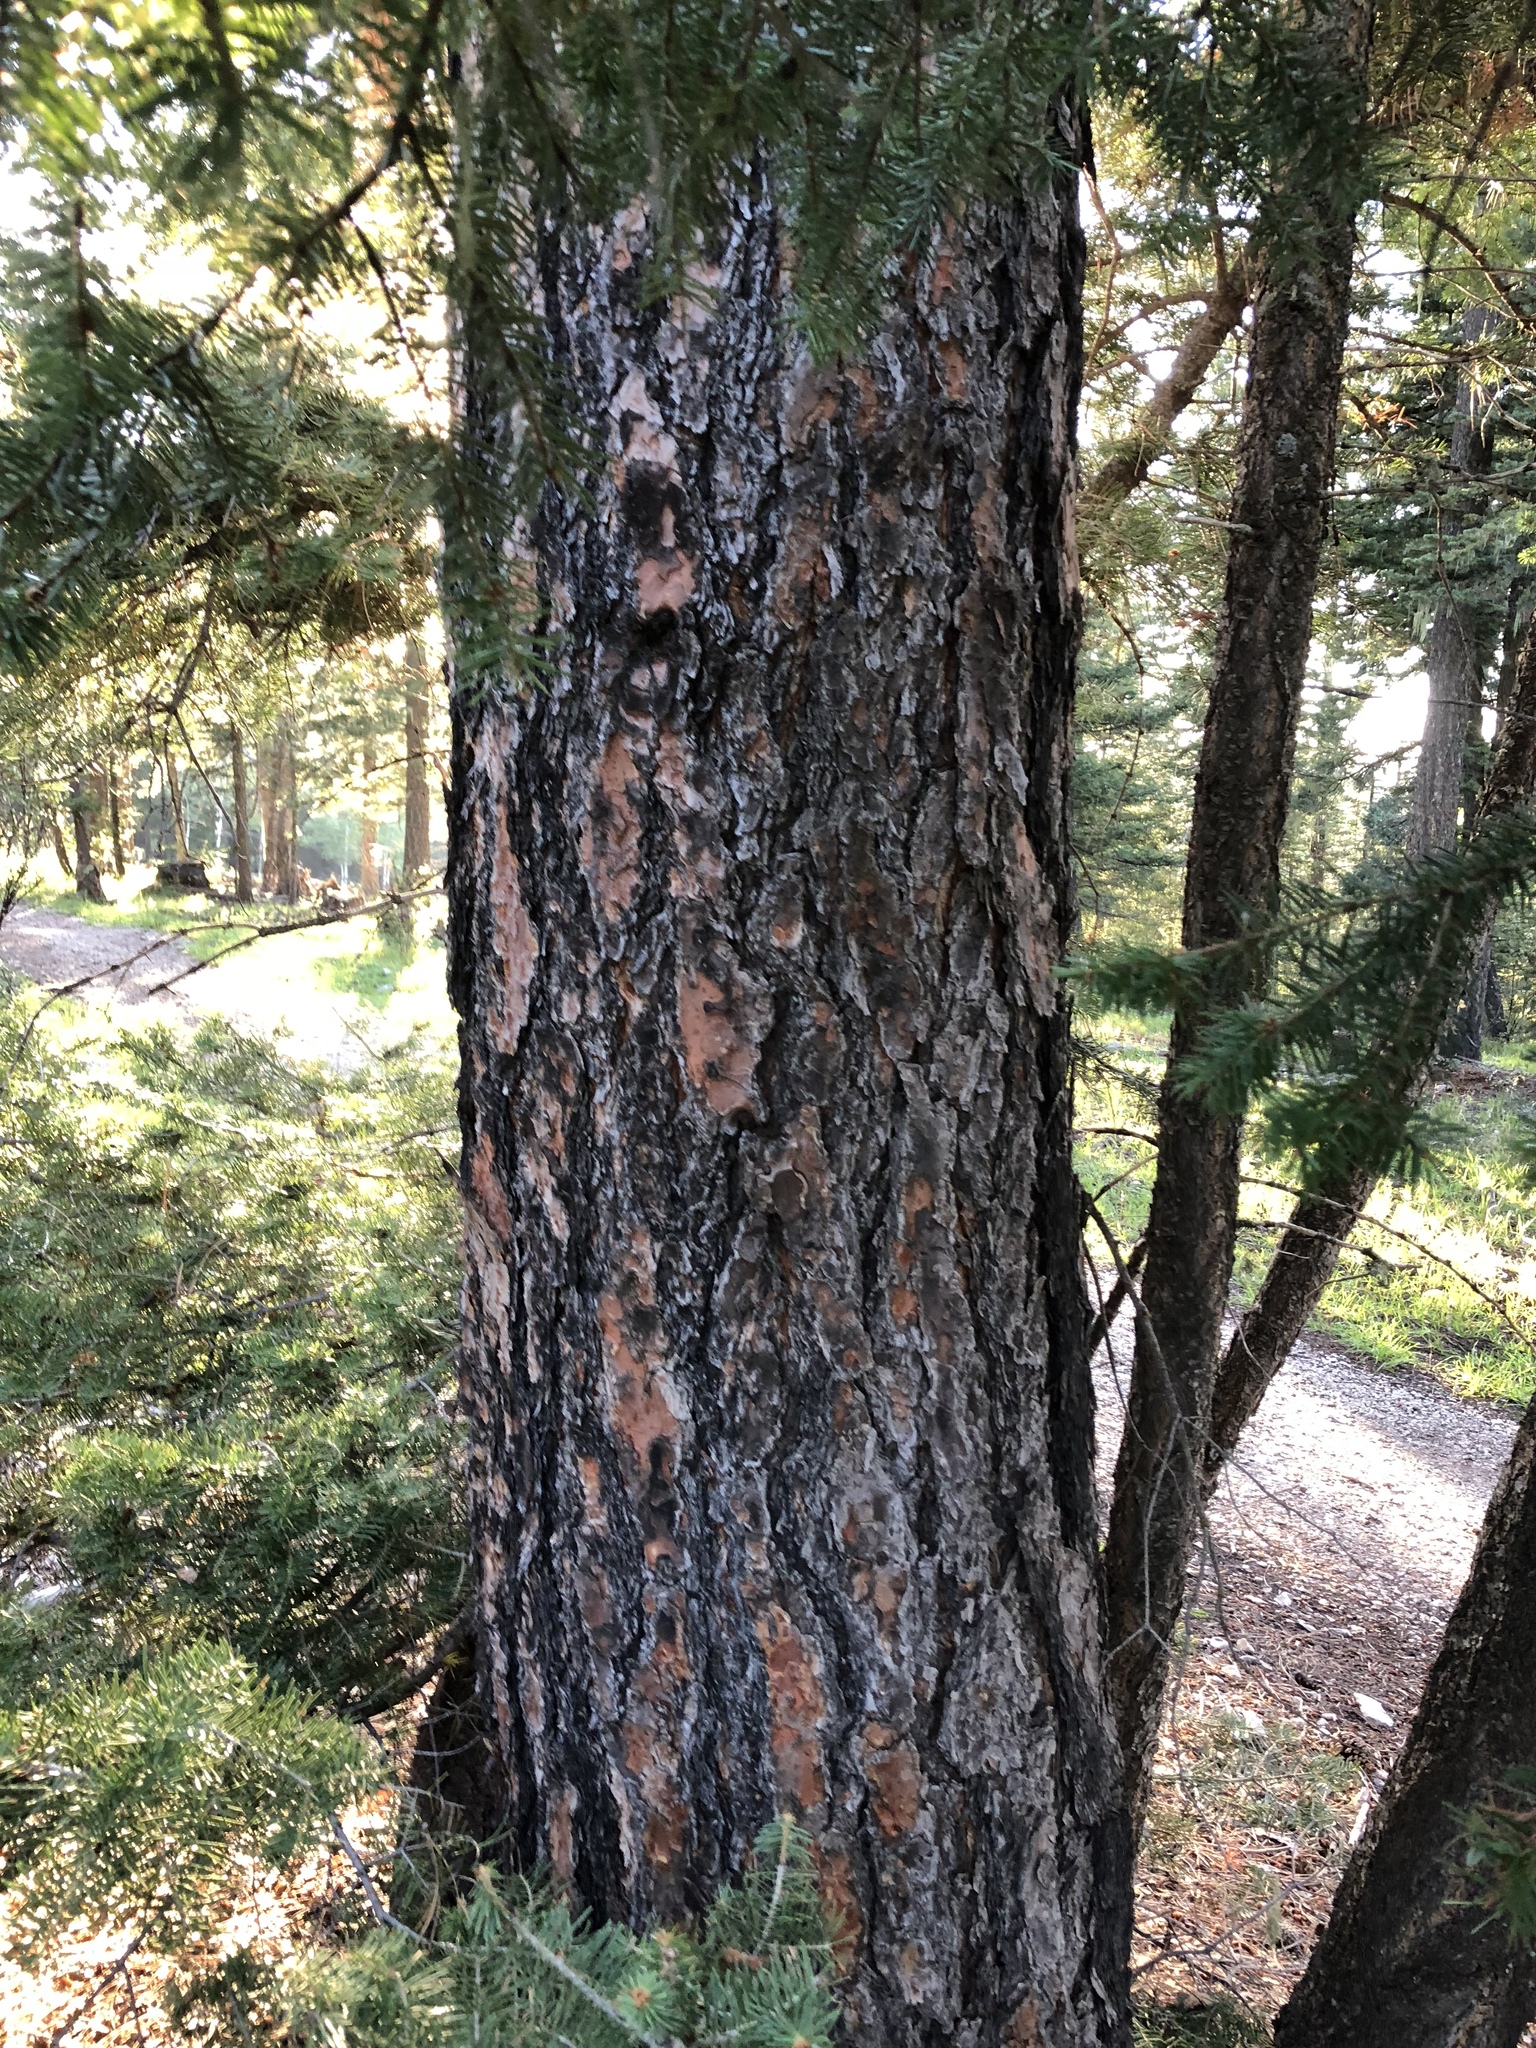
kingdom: Plantae
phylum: Tracheophyta
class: Pinopsida
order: Pinales
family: Pinaceae
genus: Pinus
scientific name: Pinus ponderosa
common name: Western yellow-pine
